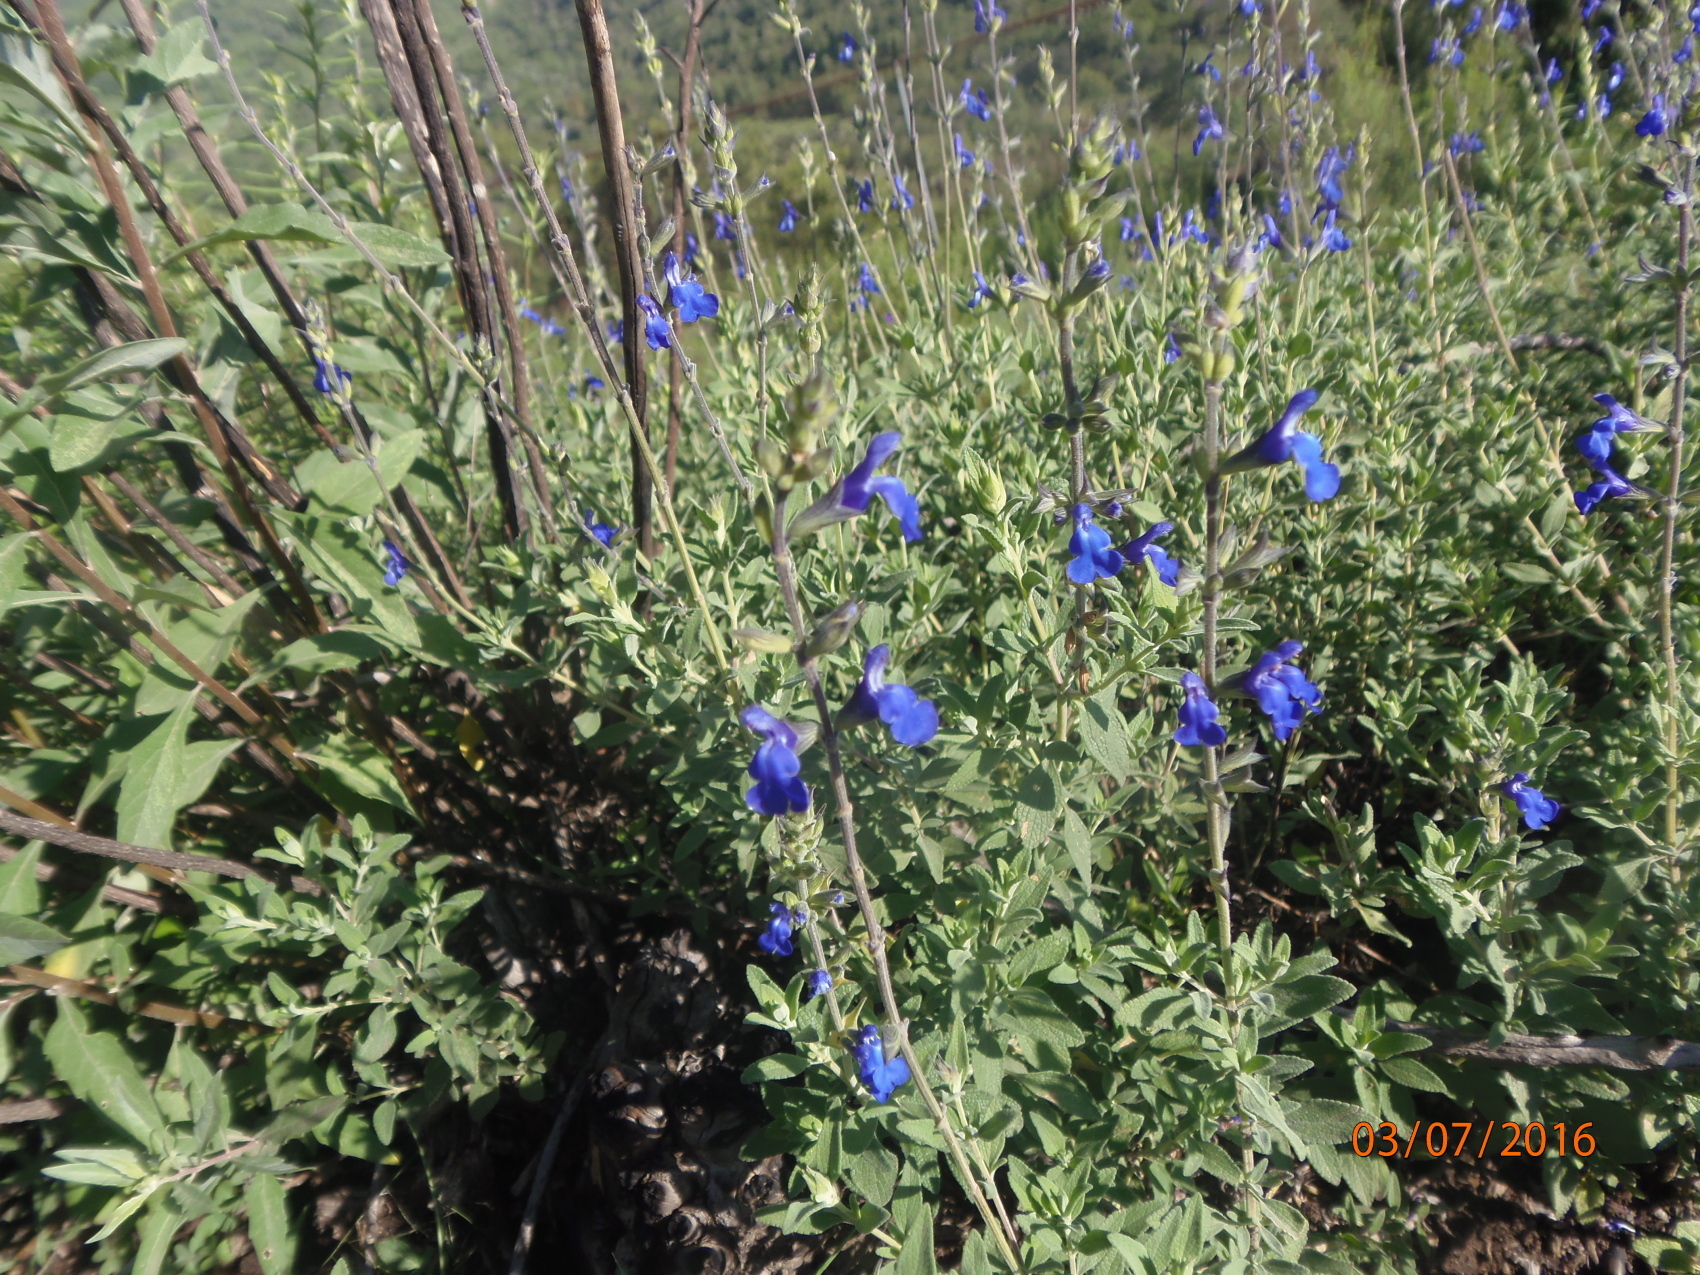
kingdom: Plantae
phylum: Tracheophyta
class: Magnoliopsida
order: Lamiales
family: Lamiaceae
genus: Salvia
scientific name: Salvia chamaedryoides
